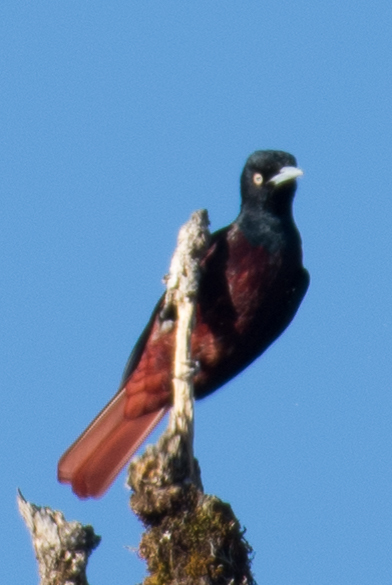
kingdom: Animalia
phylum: Chordata
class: Aves
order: Passeriformes
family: Oriolidae
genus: Oriolus
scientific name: Oriolus traillii
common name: Maroon oriole
